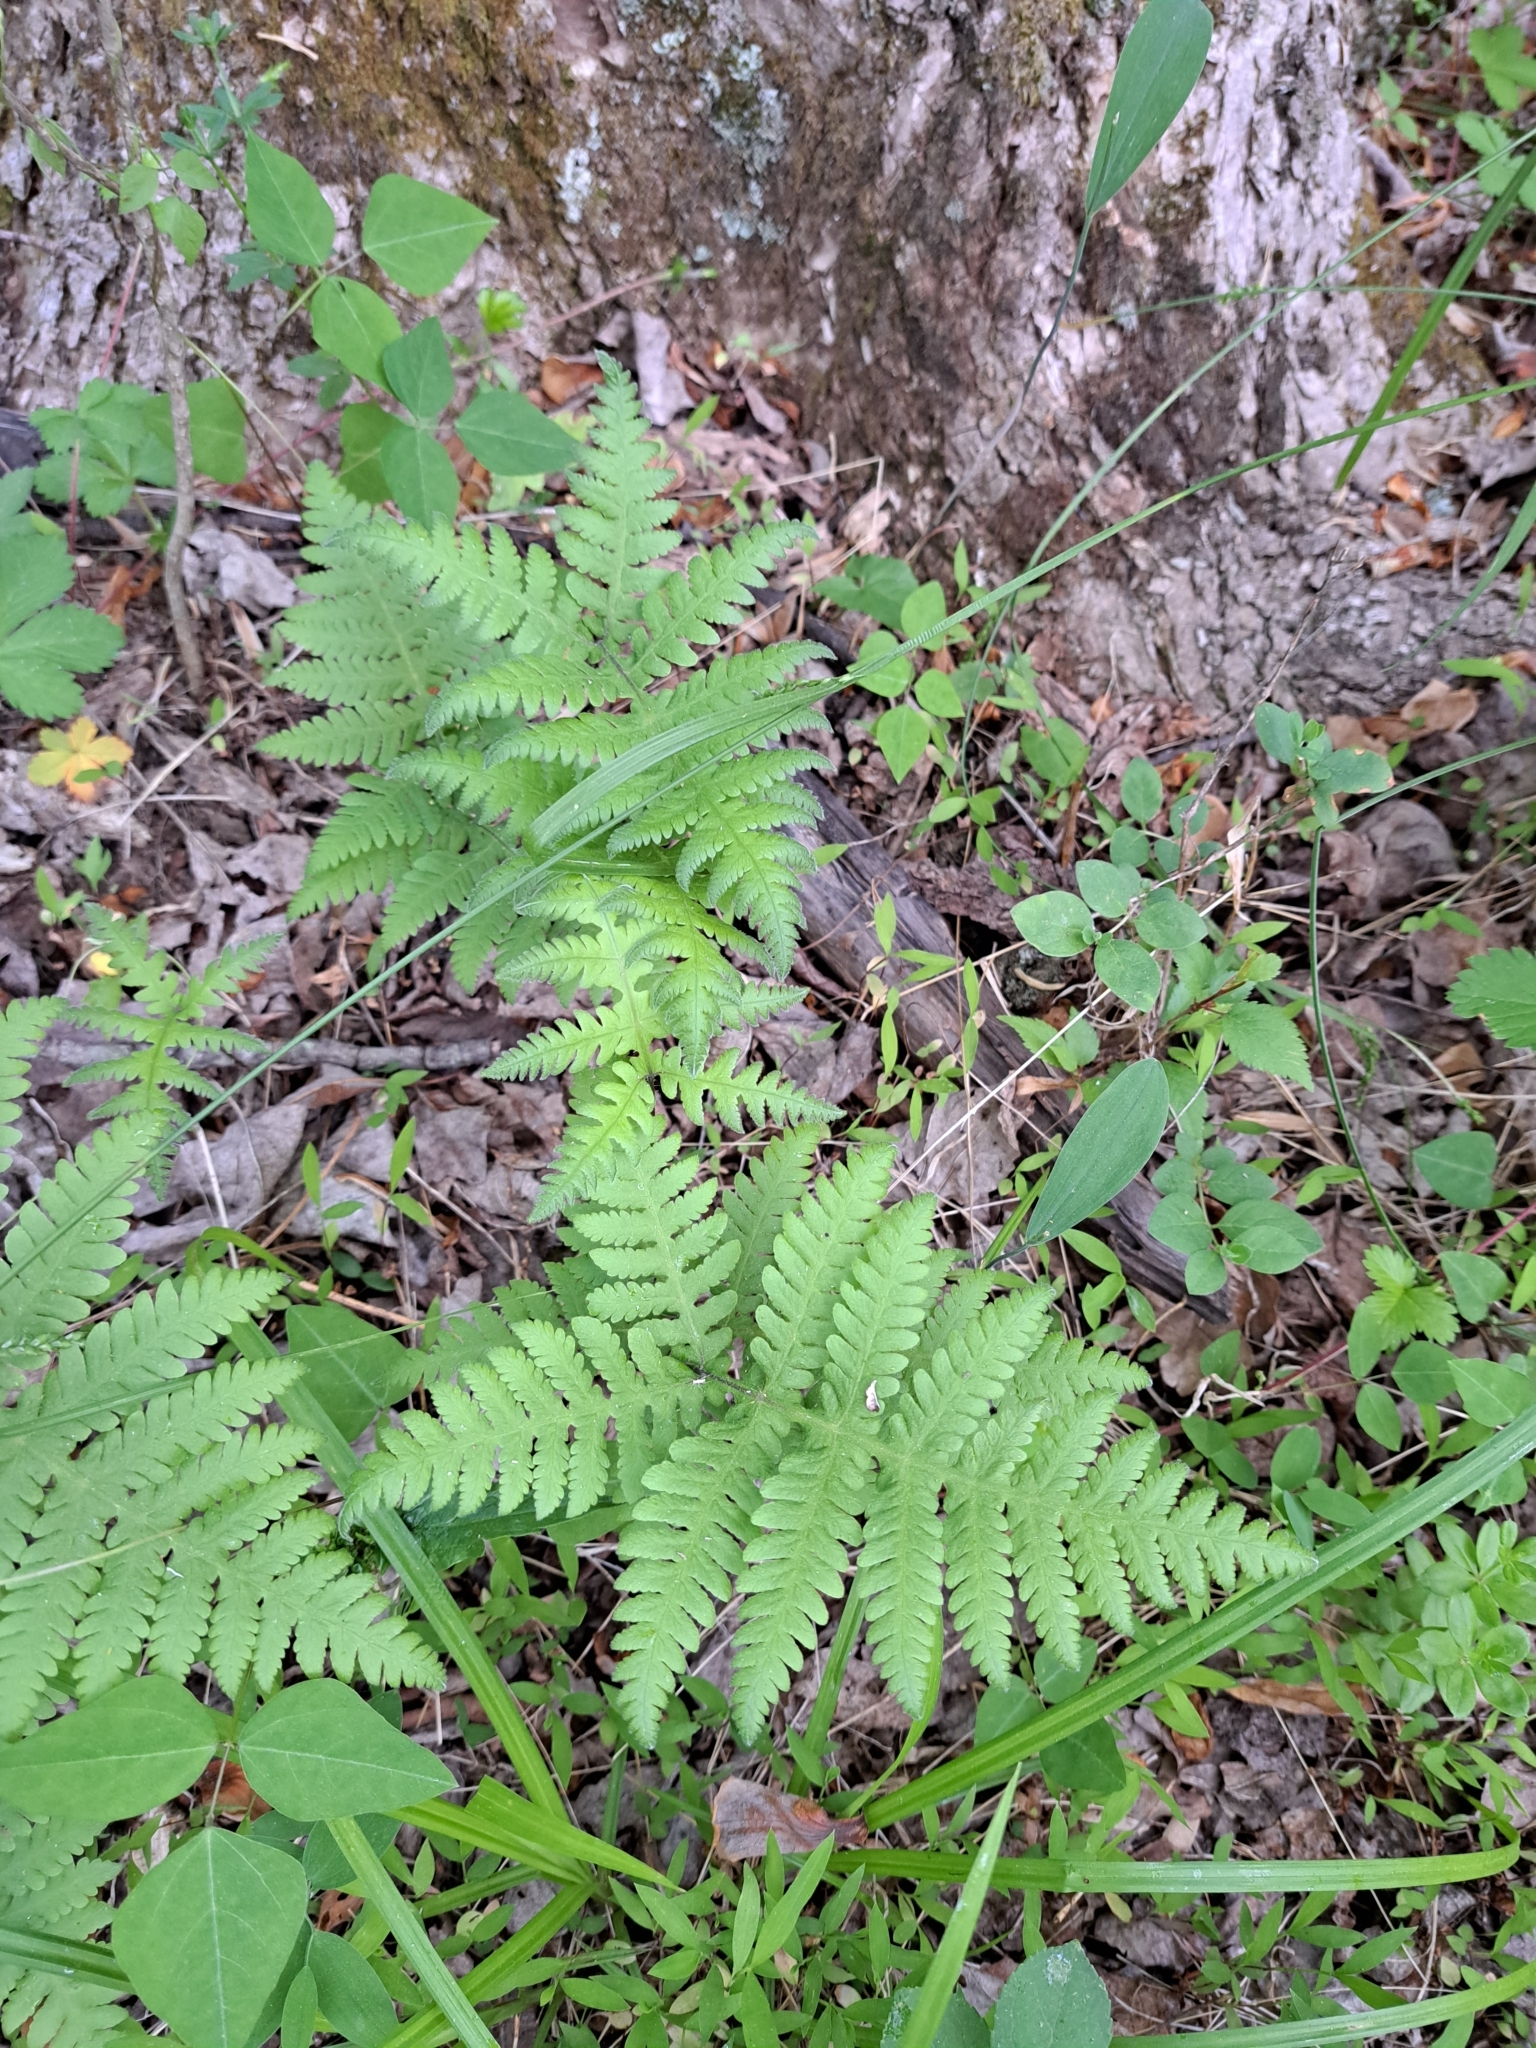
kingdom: Plantae
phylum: Tracheophyta
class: Polypodiopsida
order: Polypodiales
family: Thelypteridaceae
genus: Phegopteris
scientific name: Phegopteris hexagonoptera
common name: Broad beech fern
